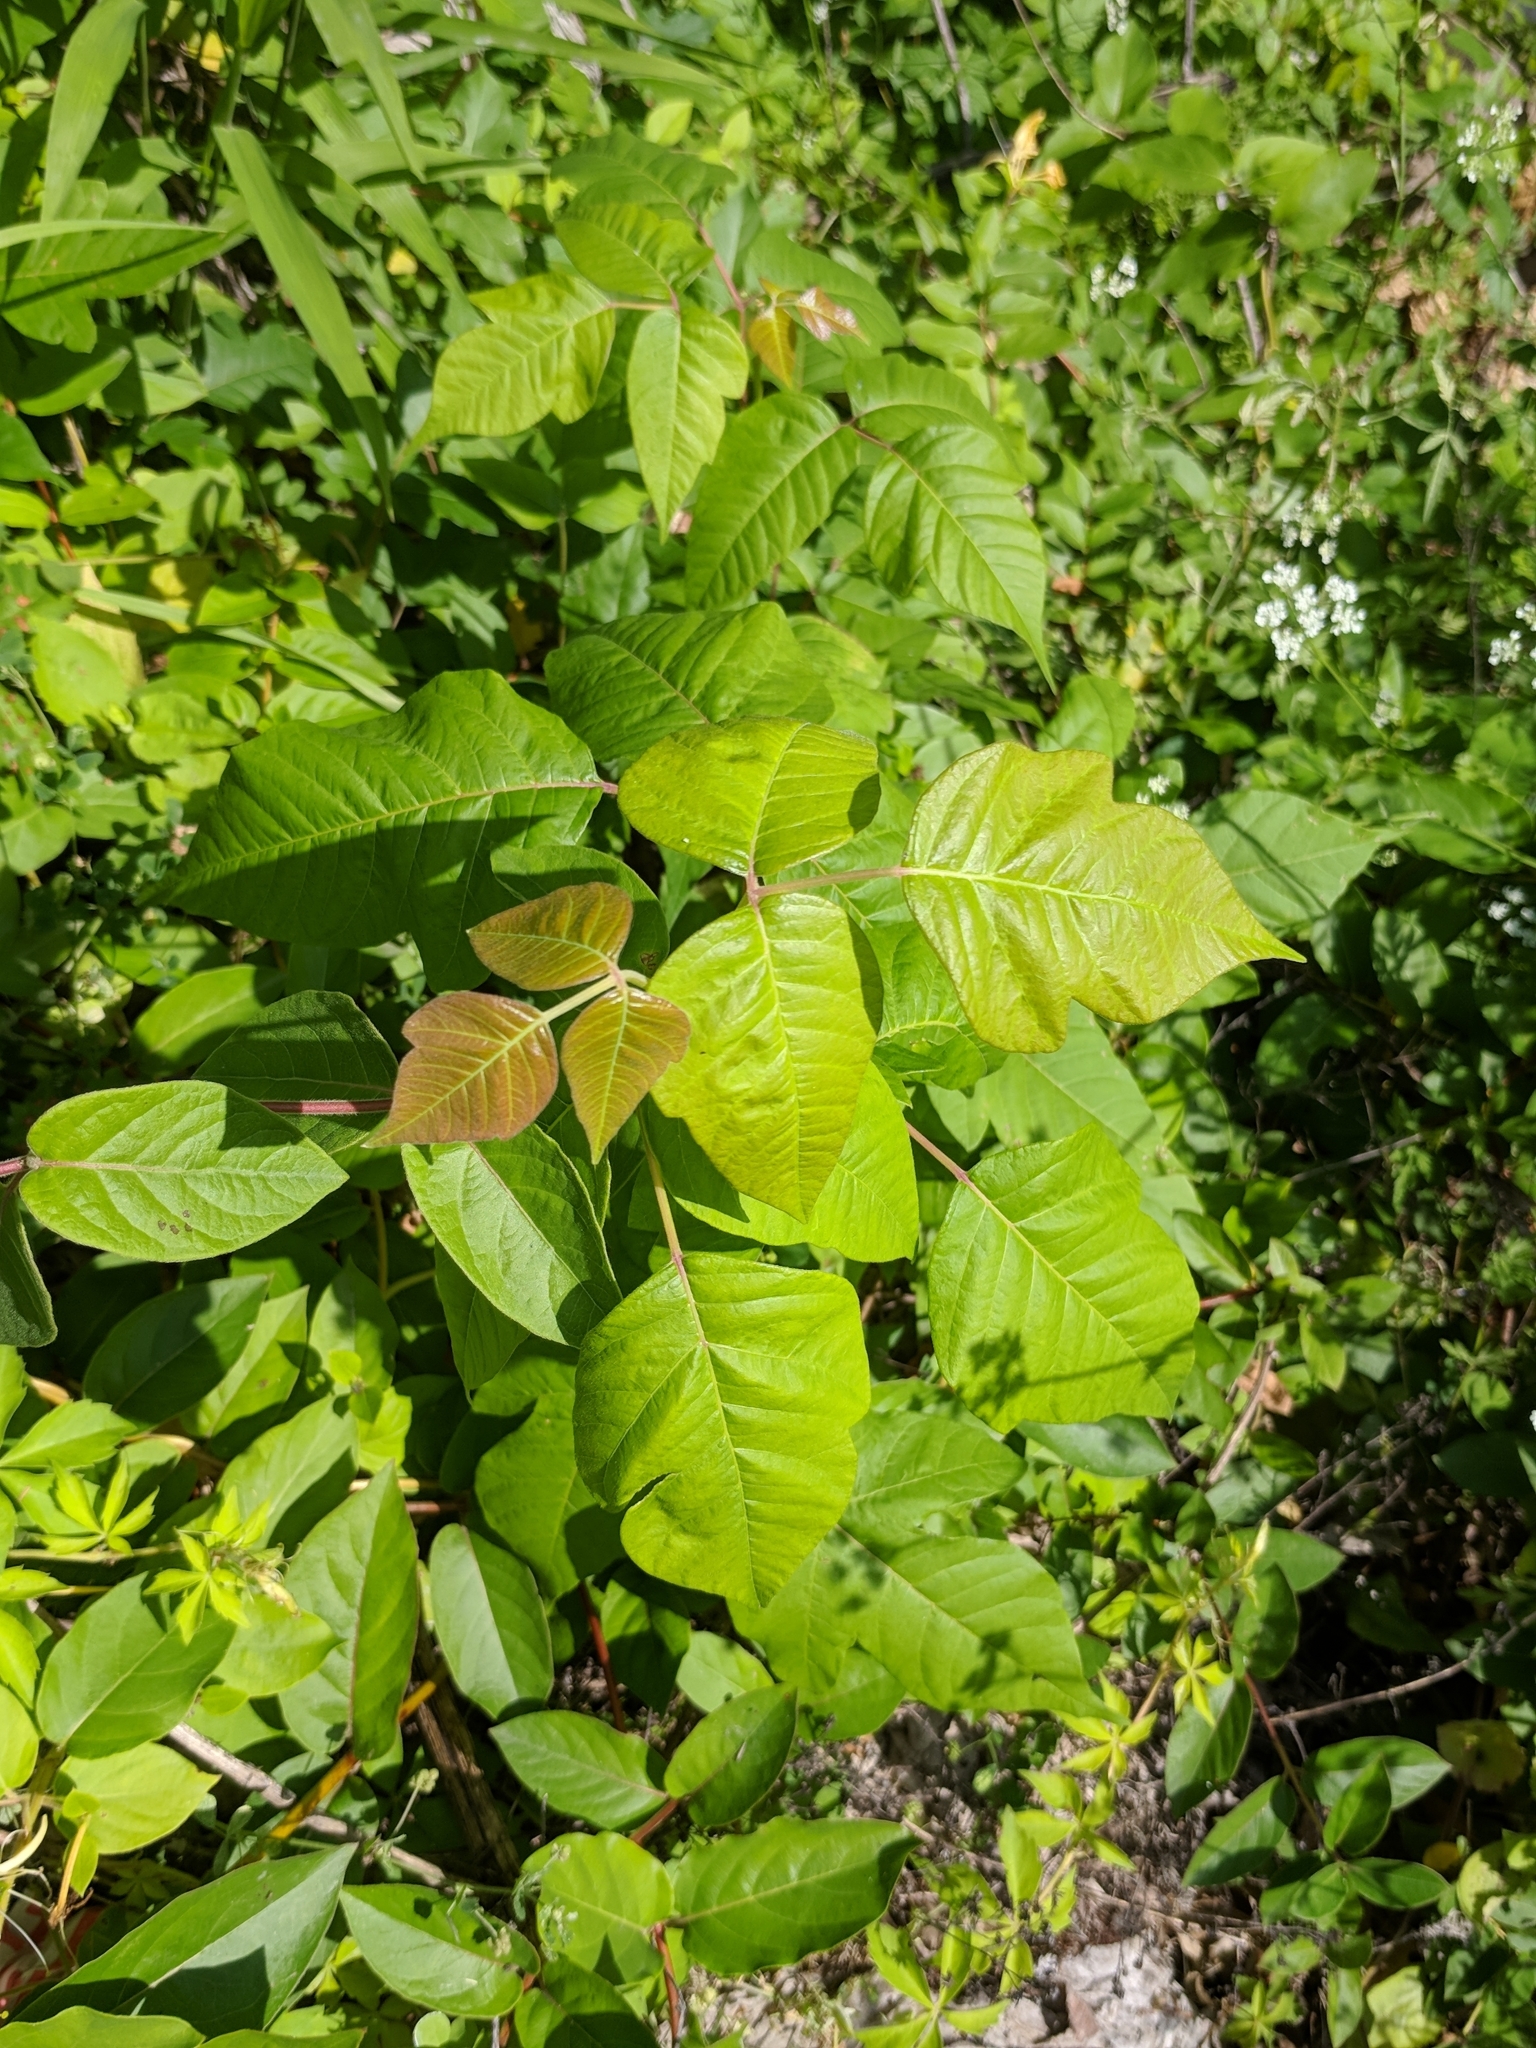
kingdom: Plantae
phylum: Tracheophyta
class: Magnoliopsida
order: Sapindales
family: Anacardiaceae
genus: Toxicodendron
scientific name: Toxicodendron radicans
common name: Poison ivy
